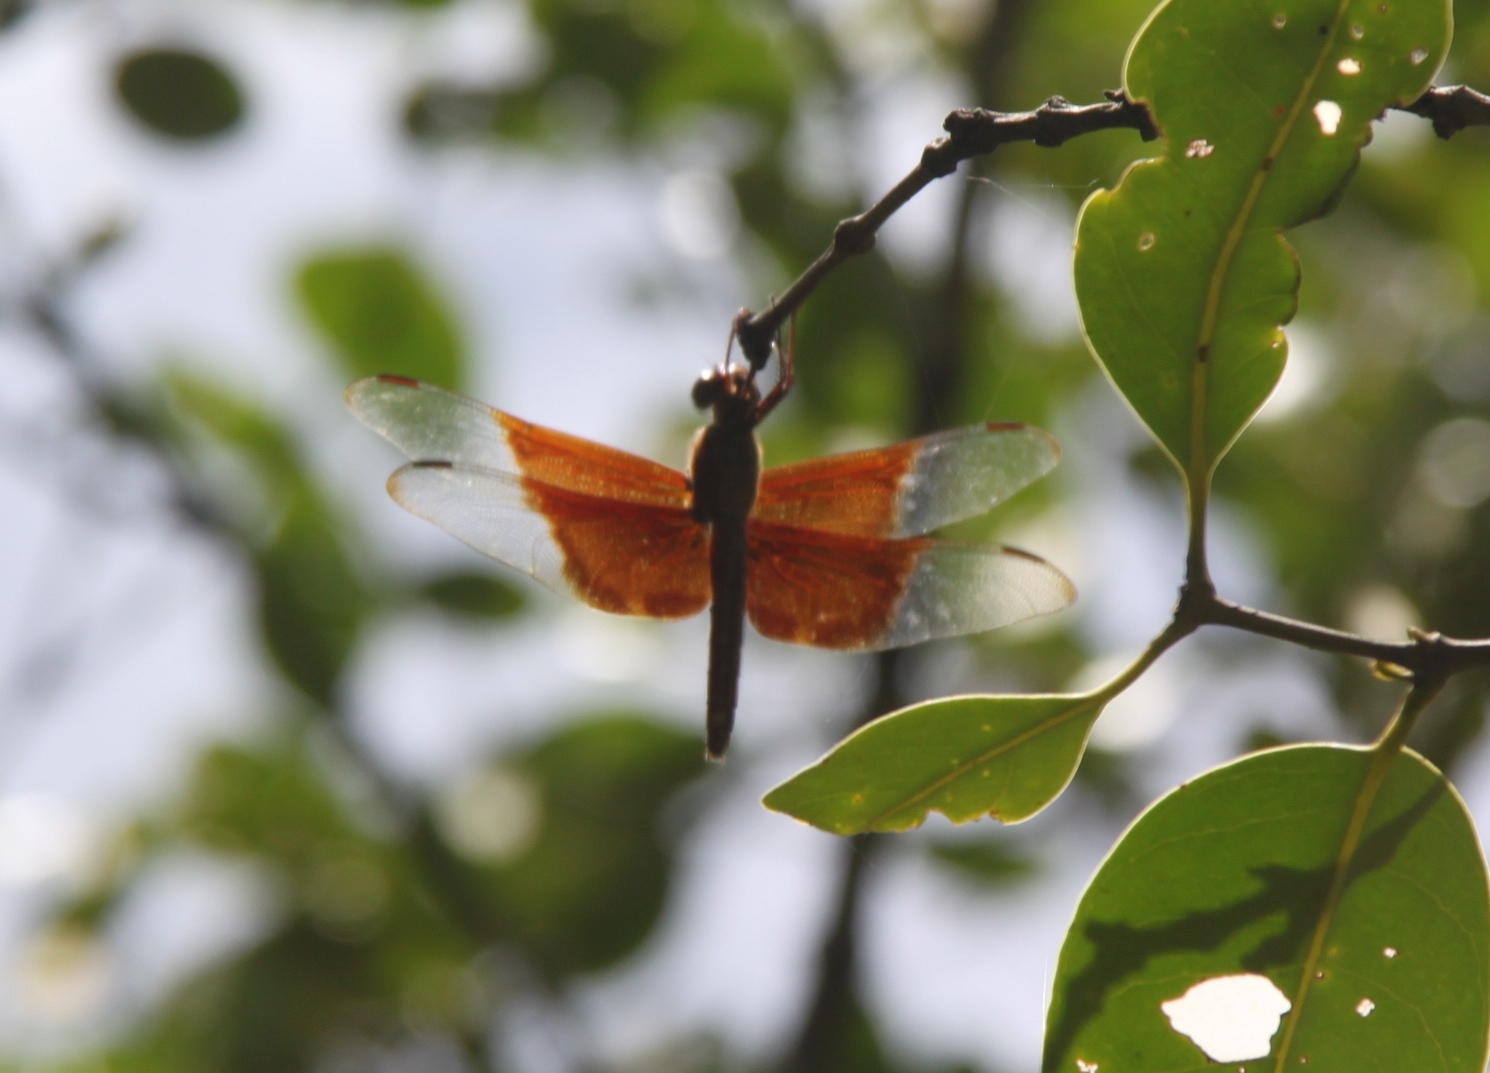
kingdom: Animalia
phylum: Arthropoda
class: Insecta
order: Odonata
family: Libellulidae
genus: Camacinia
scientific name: Camacinia gigantea
